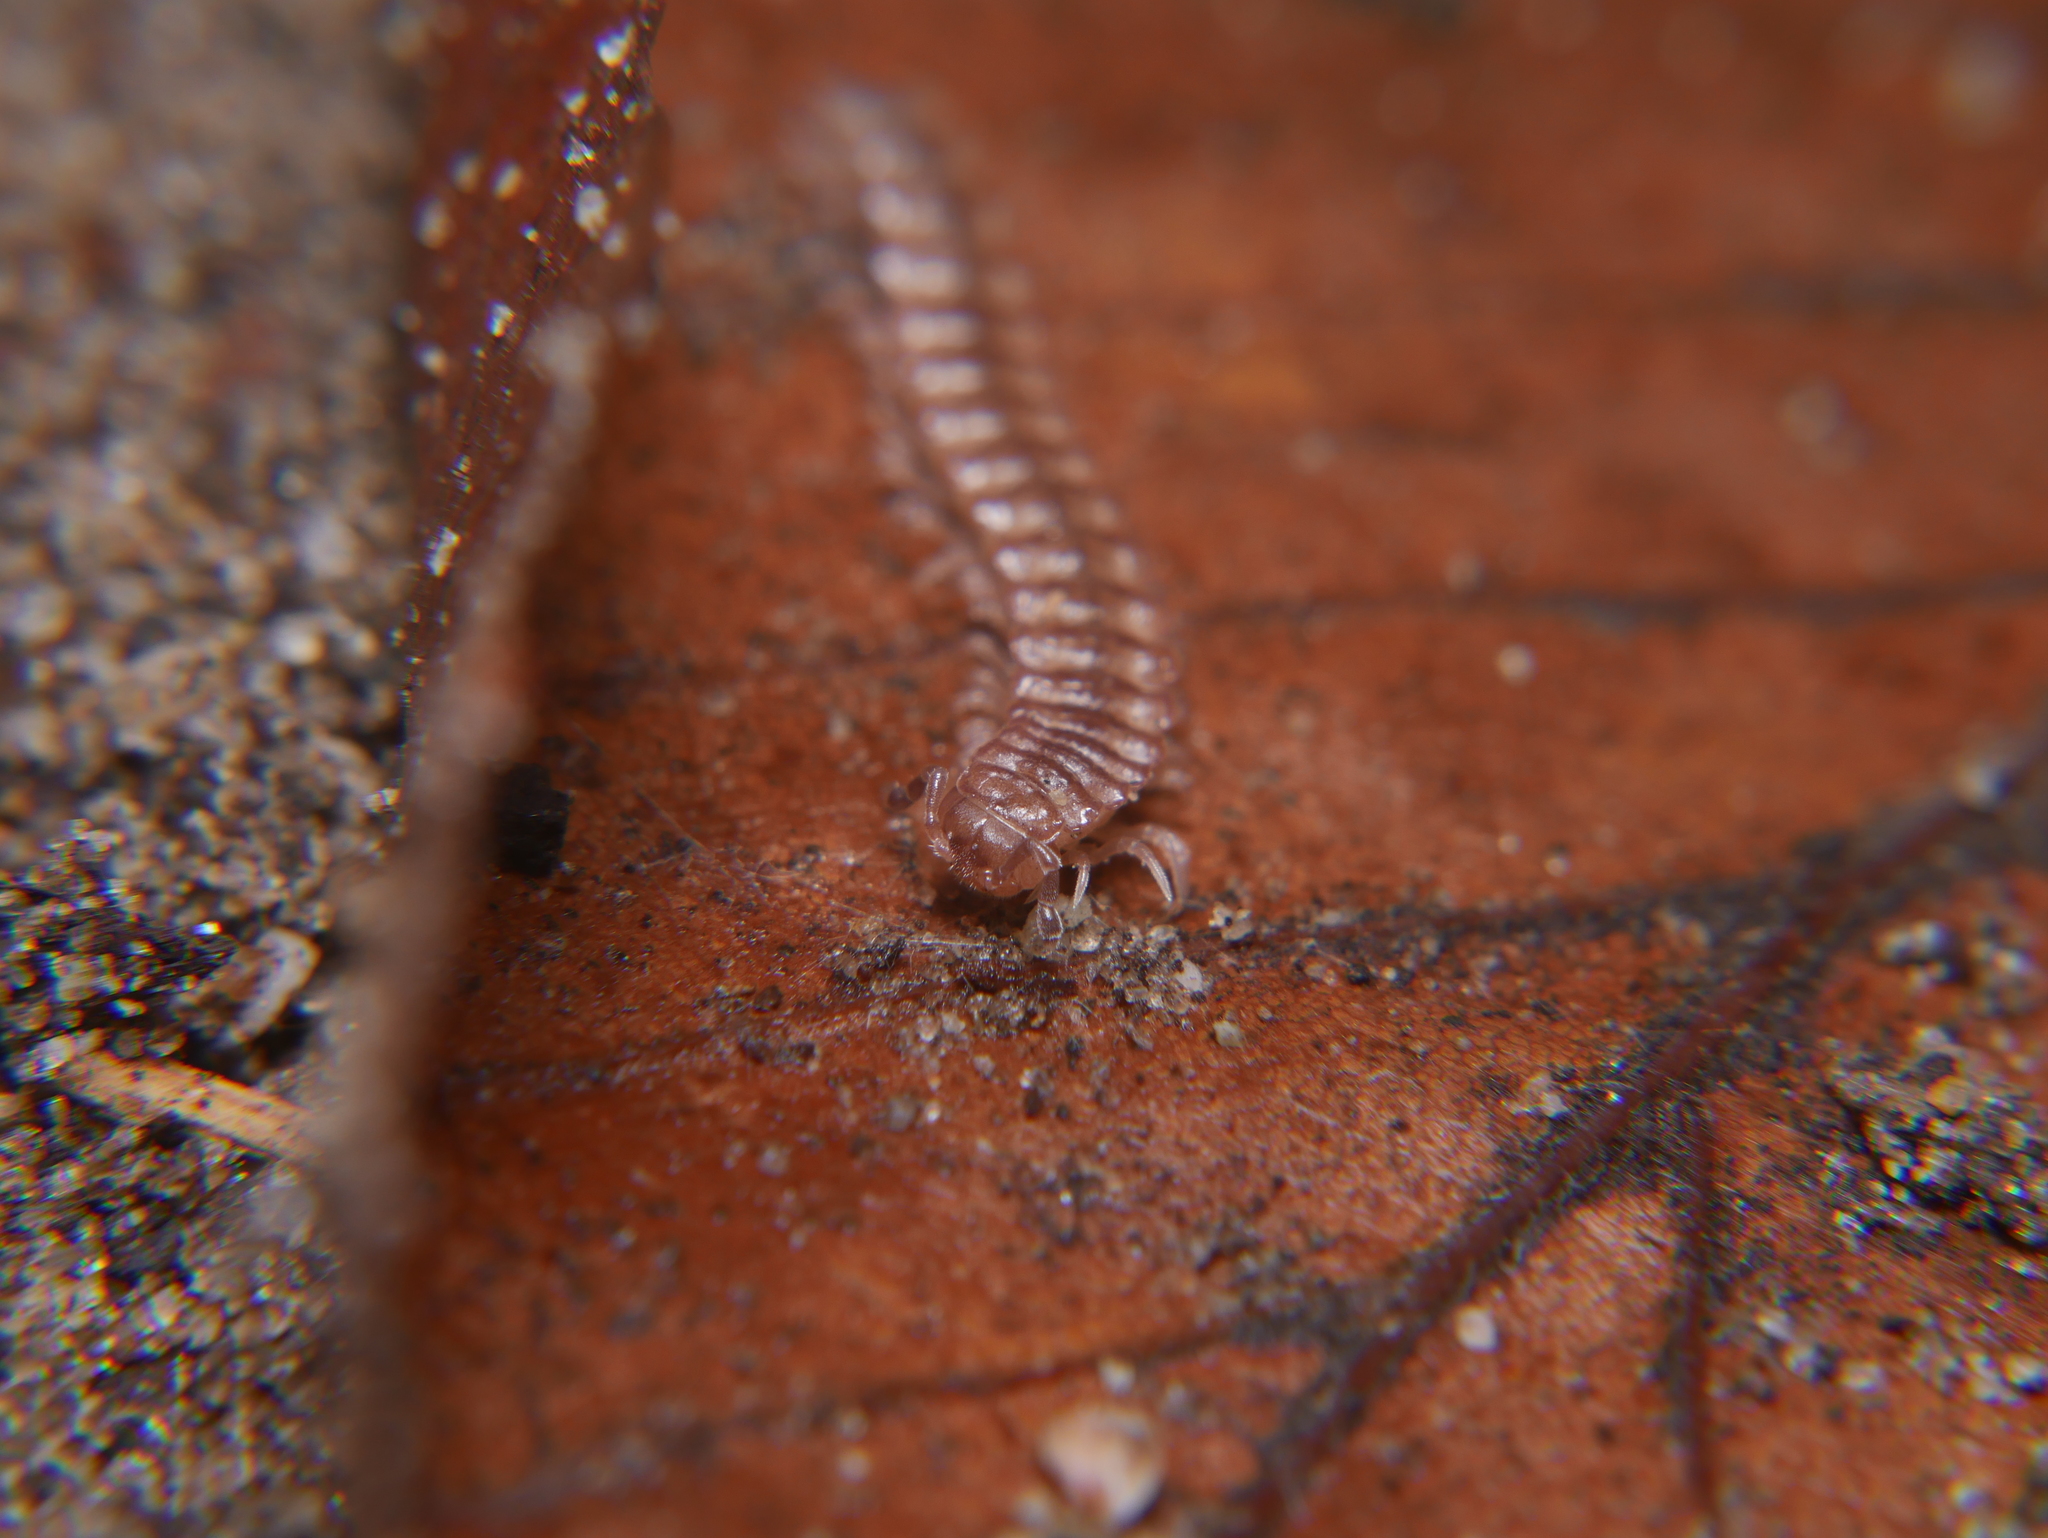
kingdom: Animalia
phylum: Arthropoda
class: Diplopoda
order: Polydesmida
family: Polydesmidae
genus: Polydesmus
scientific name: Polydesmus inconstans
